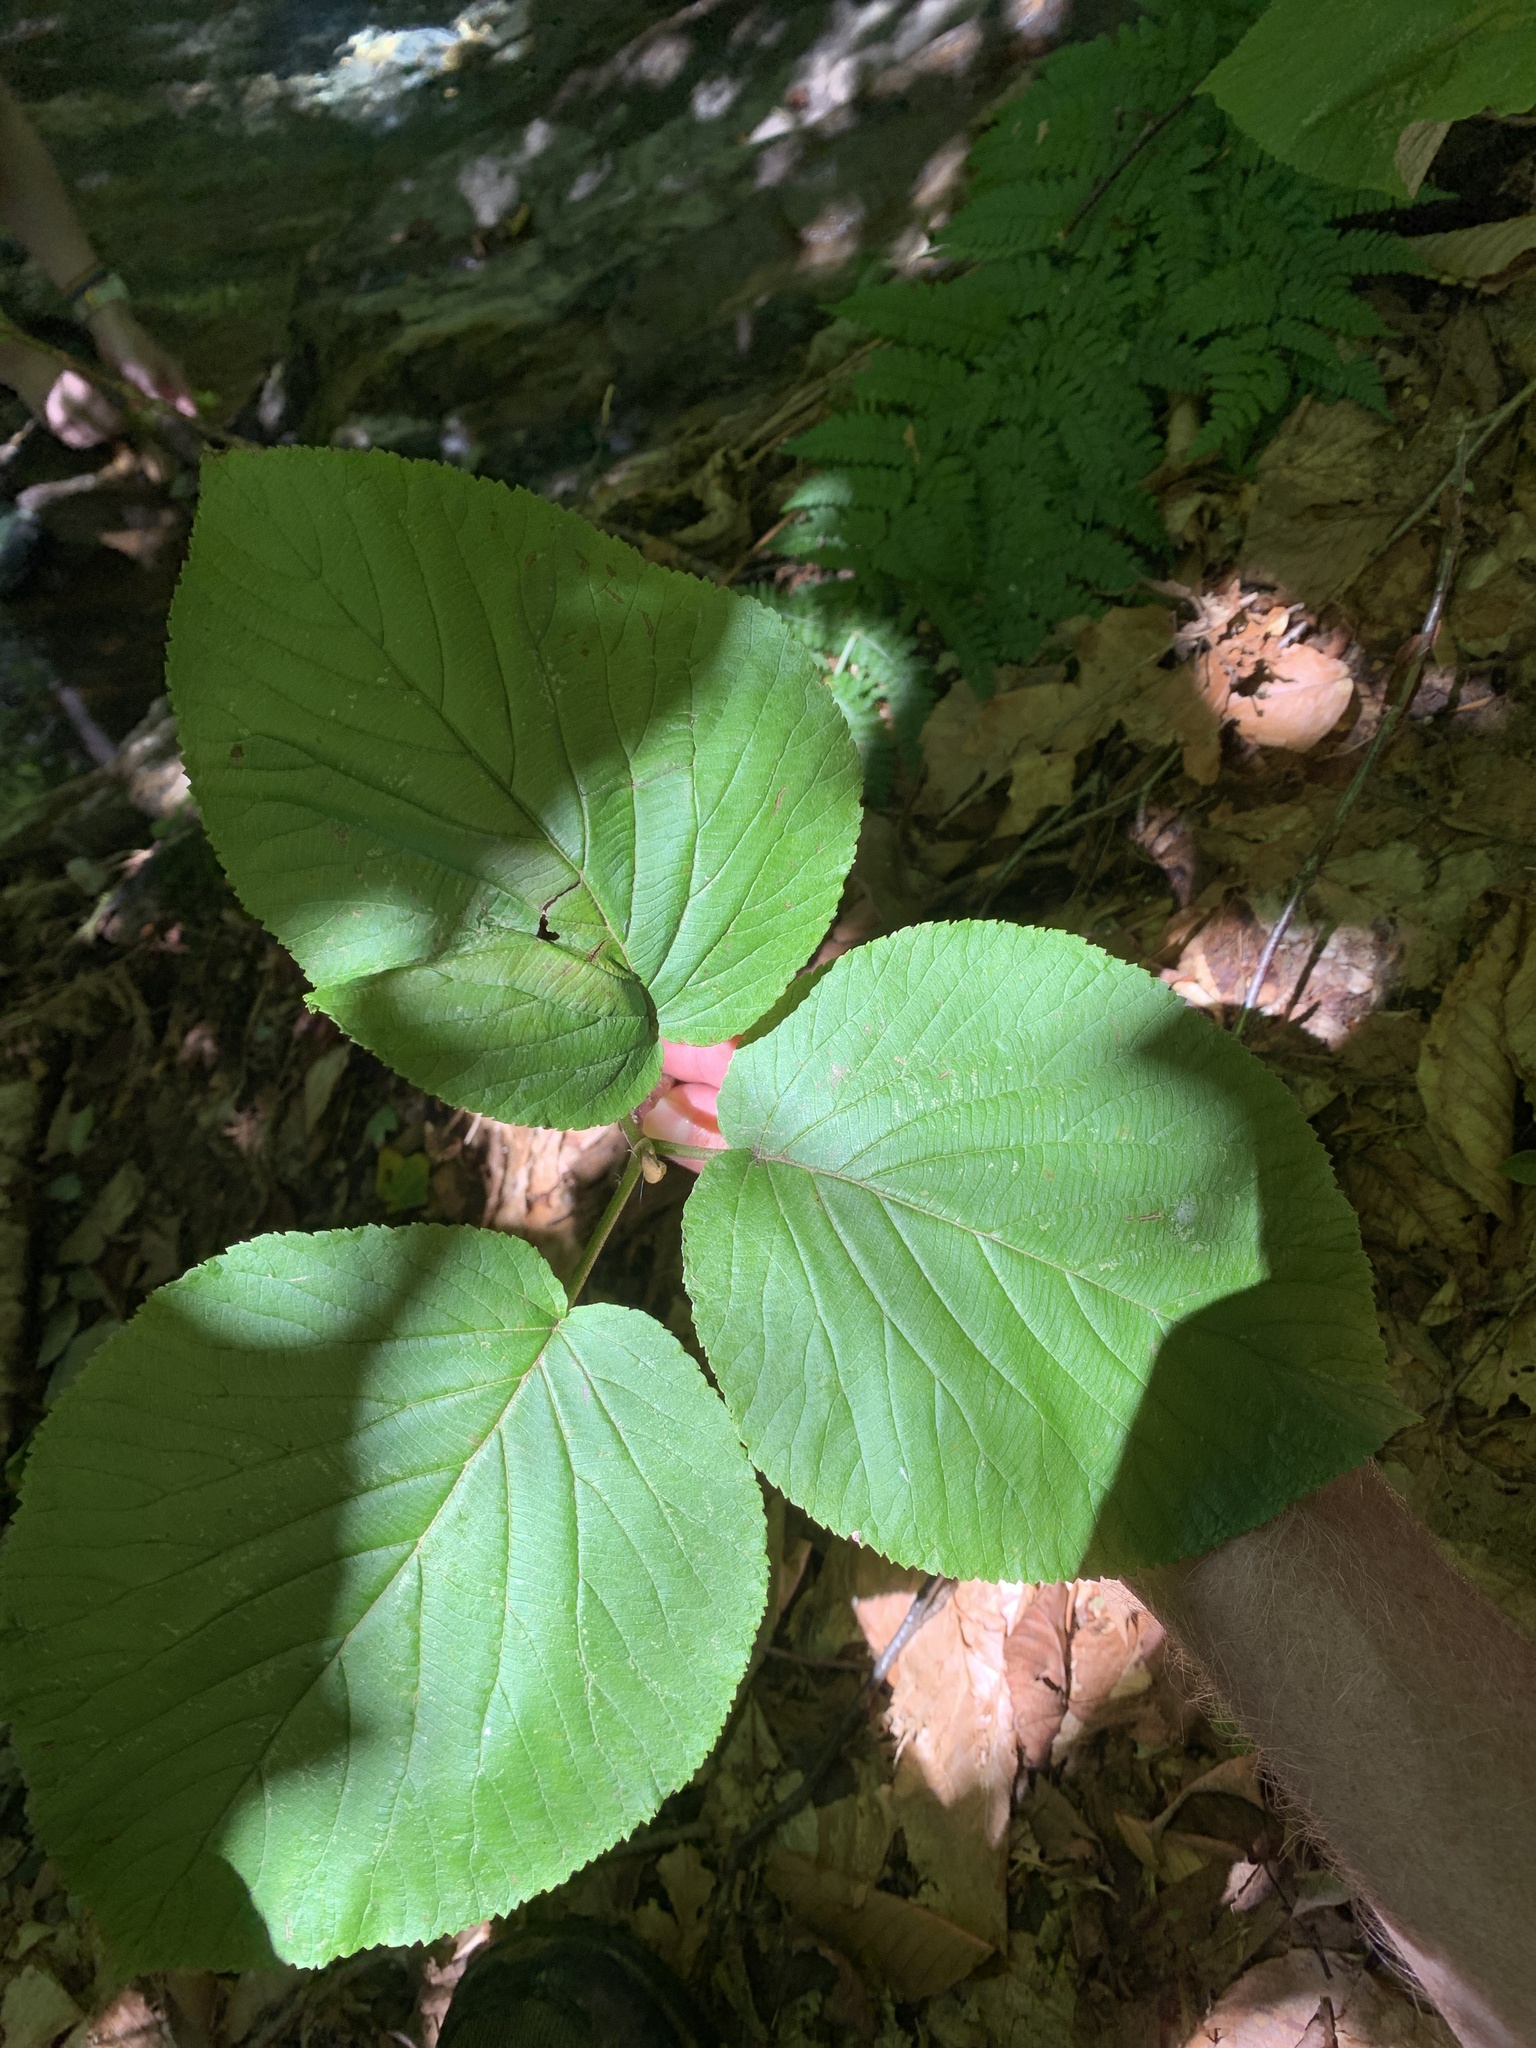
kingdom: Plantae
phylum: Tracheophyta
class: Magnoliopsida
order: Dipsacales
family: Viburnaceae
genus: Viburnum
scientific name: Viburnum lantanoides
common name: Hobblebush
